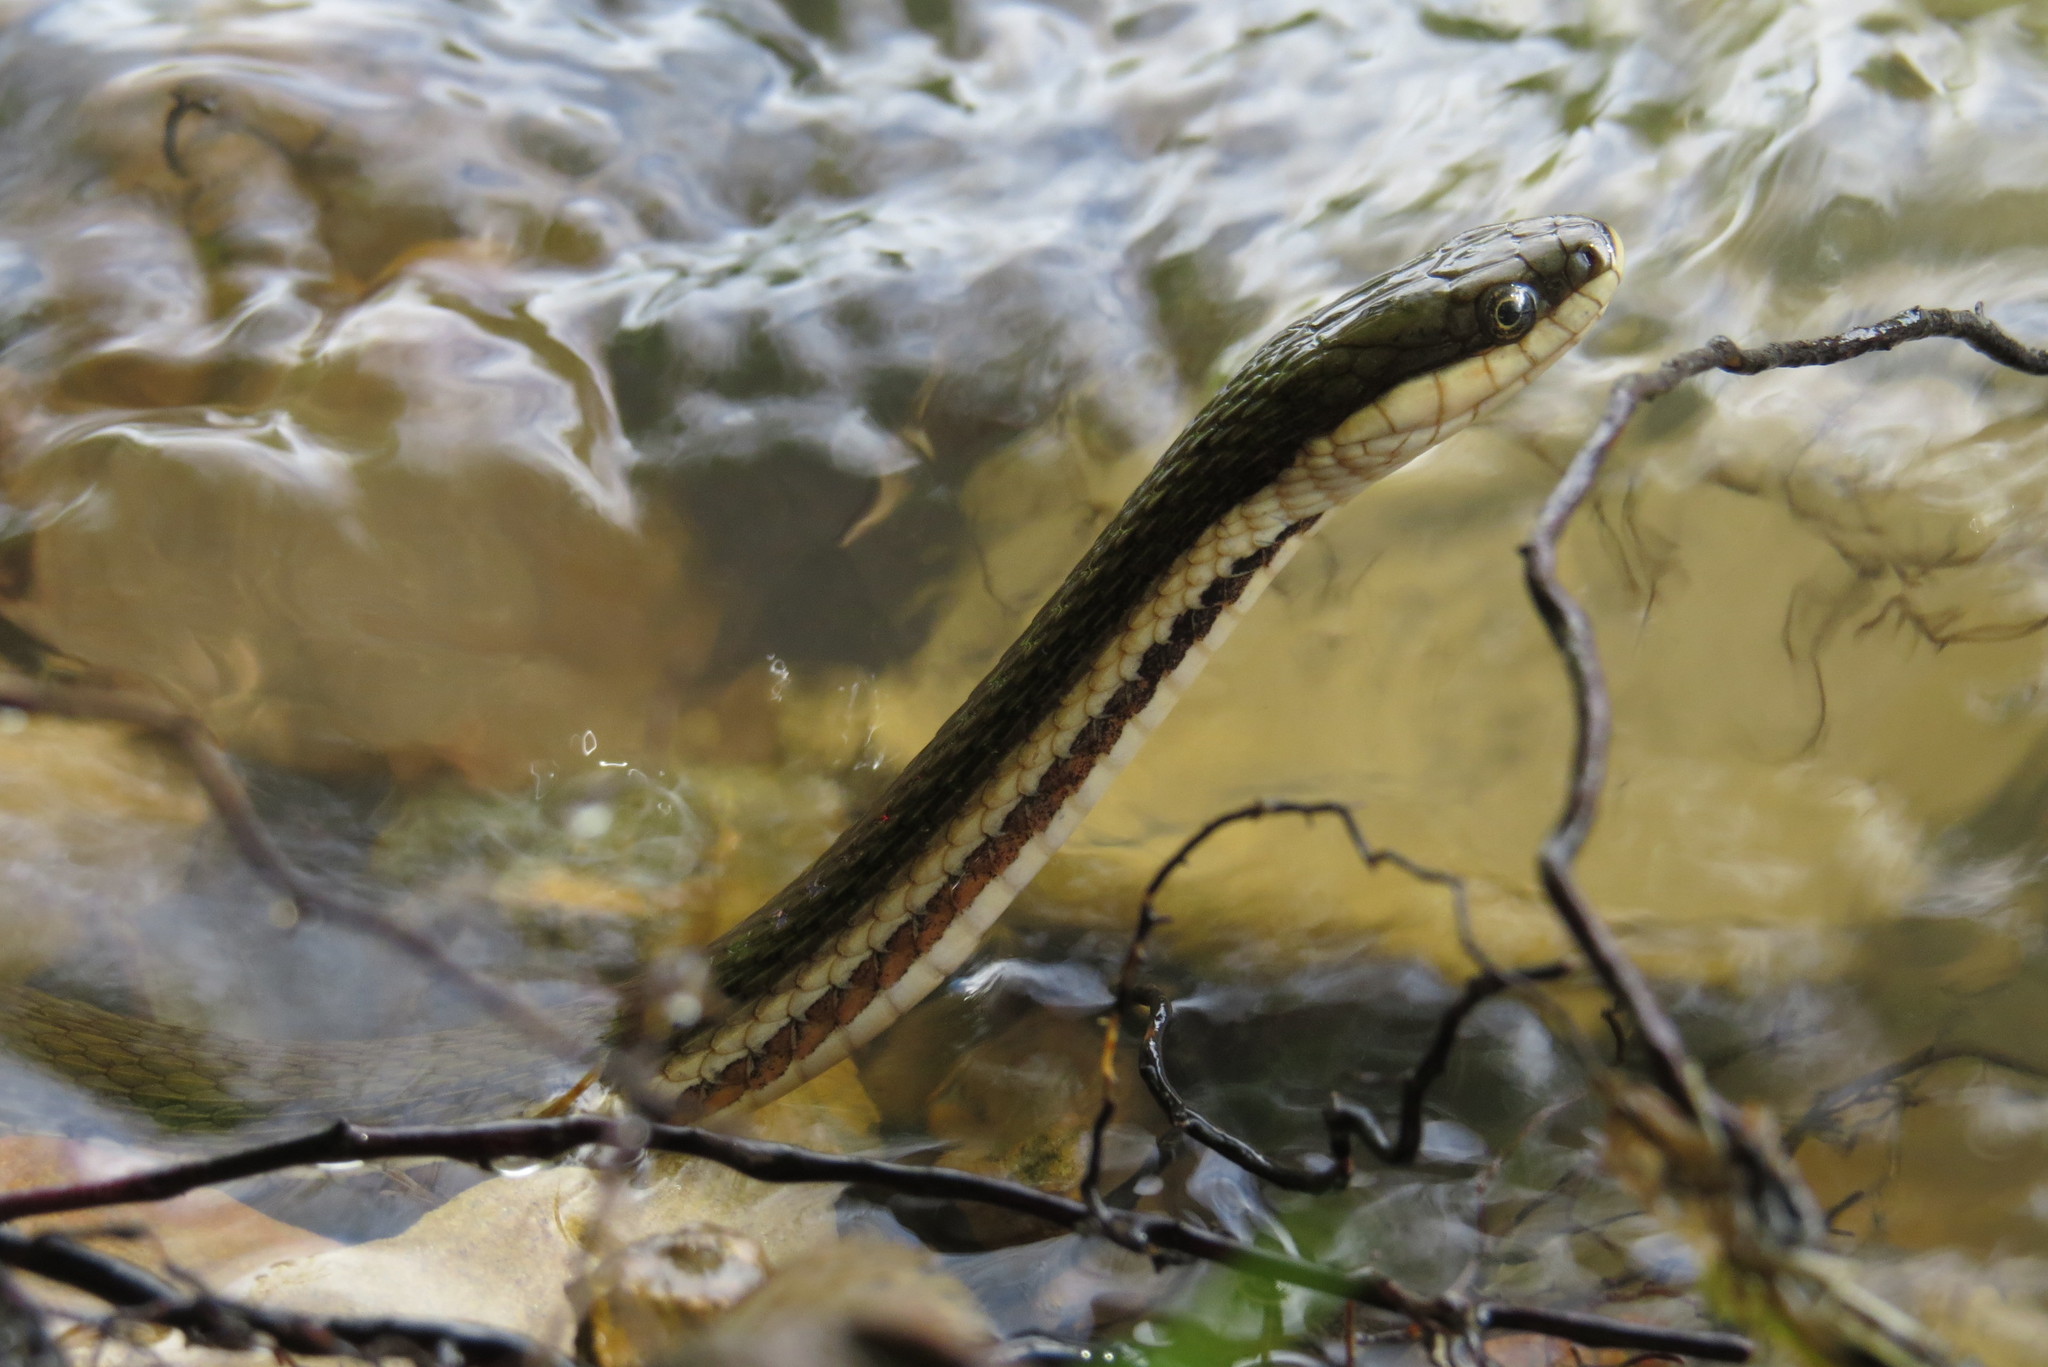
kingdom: Animalia
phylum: Chordata
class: Squamata
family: Colubridae
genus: Regina
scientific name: Regina septemvittata
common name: Queen snake
